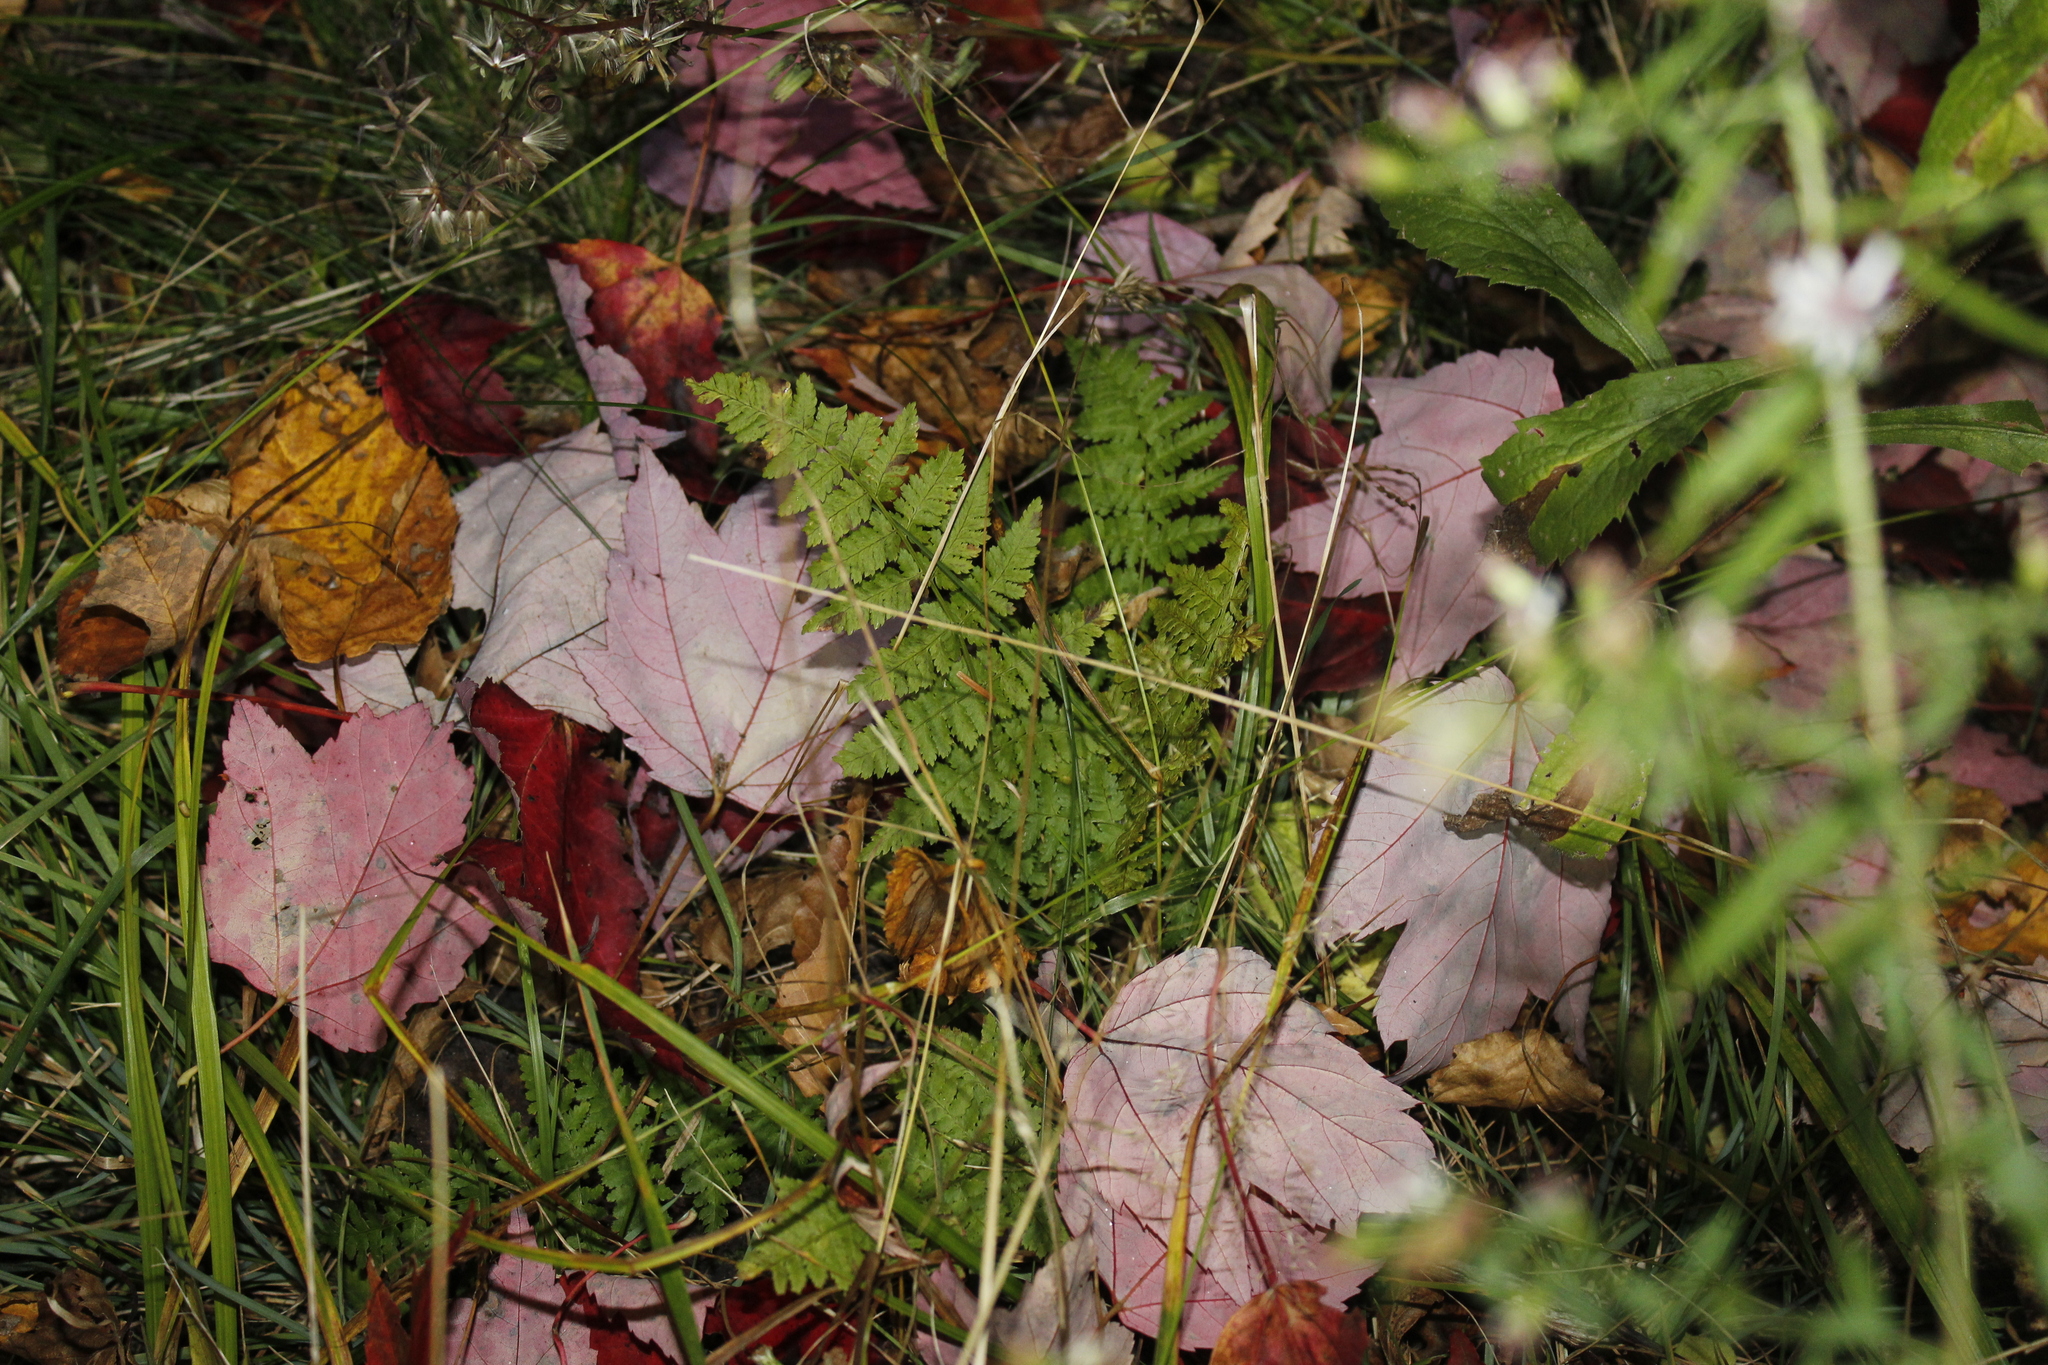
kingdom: Plantae
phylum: Tracheophyta
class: Polypodiopsida
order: Polypodiales
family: Dryopteridaceae
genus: Dryopteris
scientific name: Dryopteris intermedia
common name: Evergreen wood fern
